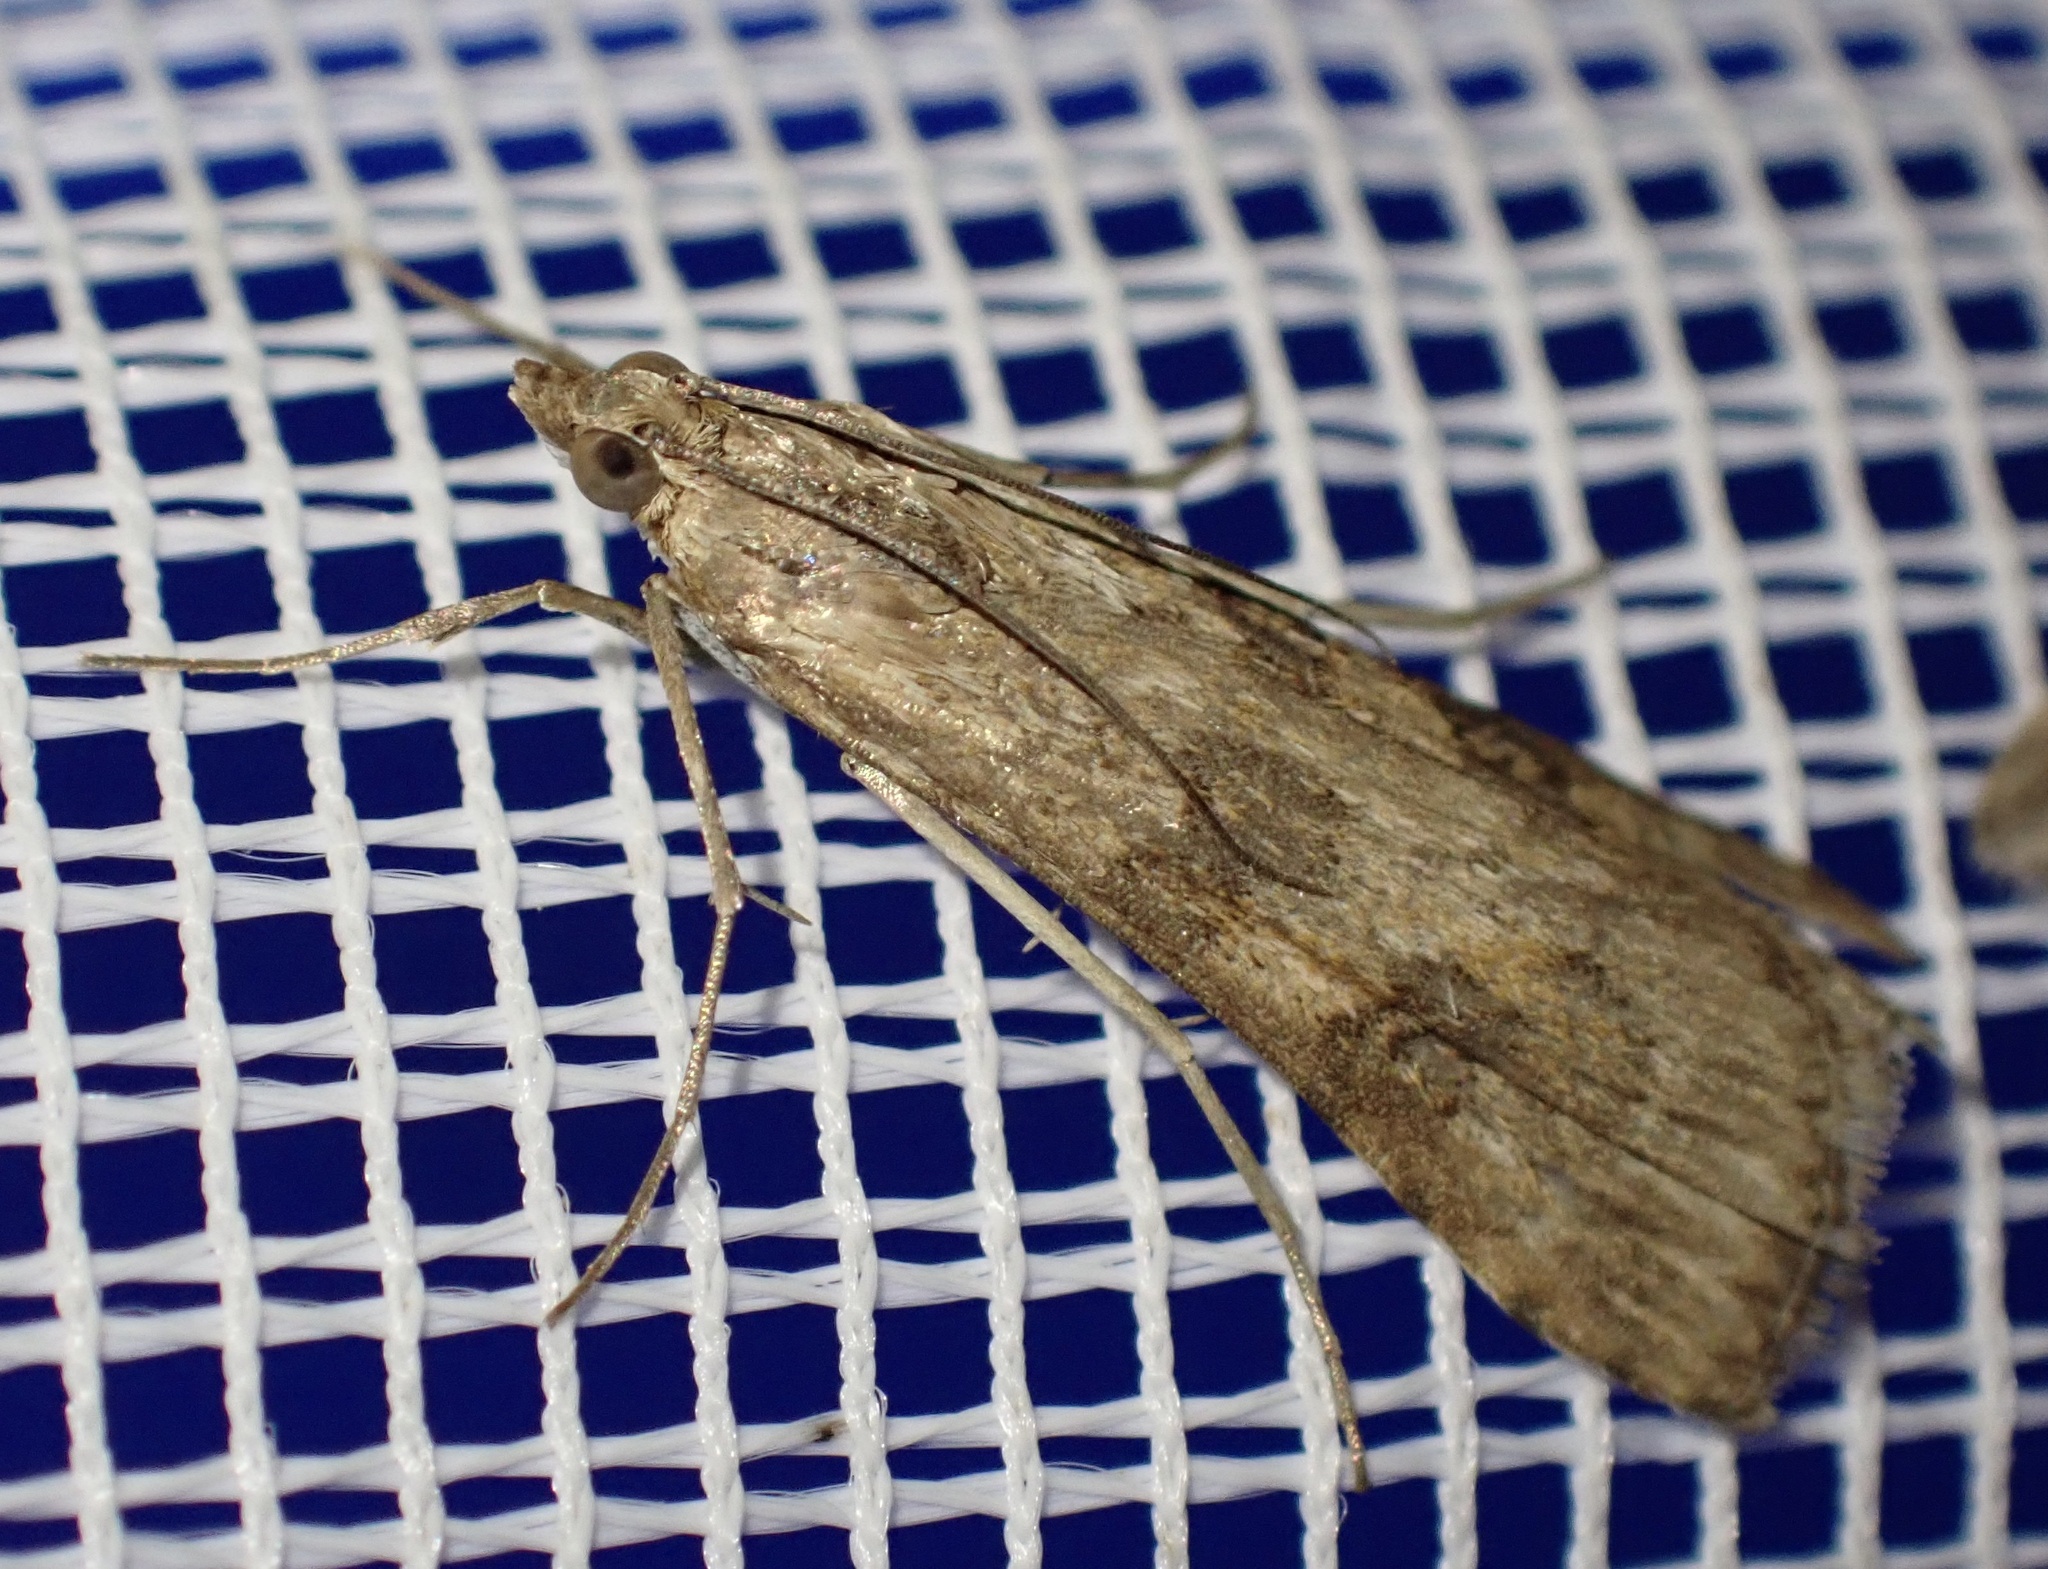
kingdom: Animalia
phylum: Arthropoda
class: Insecta
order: Lepidoptera
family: Crambidae
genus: Nomophila
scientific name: Nomophila noctuella
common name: Rush veneer
